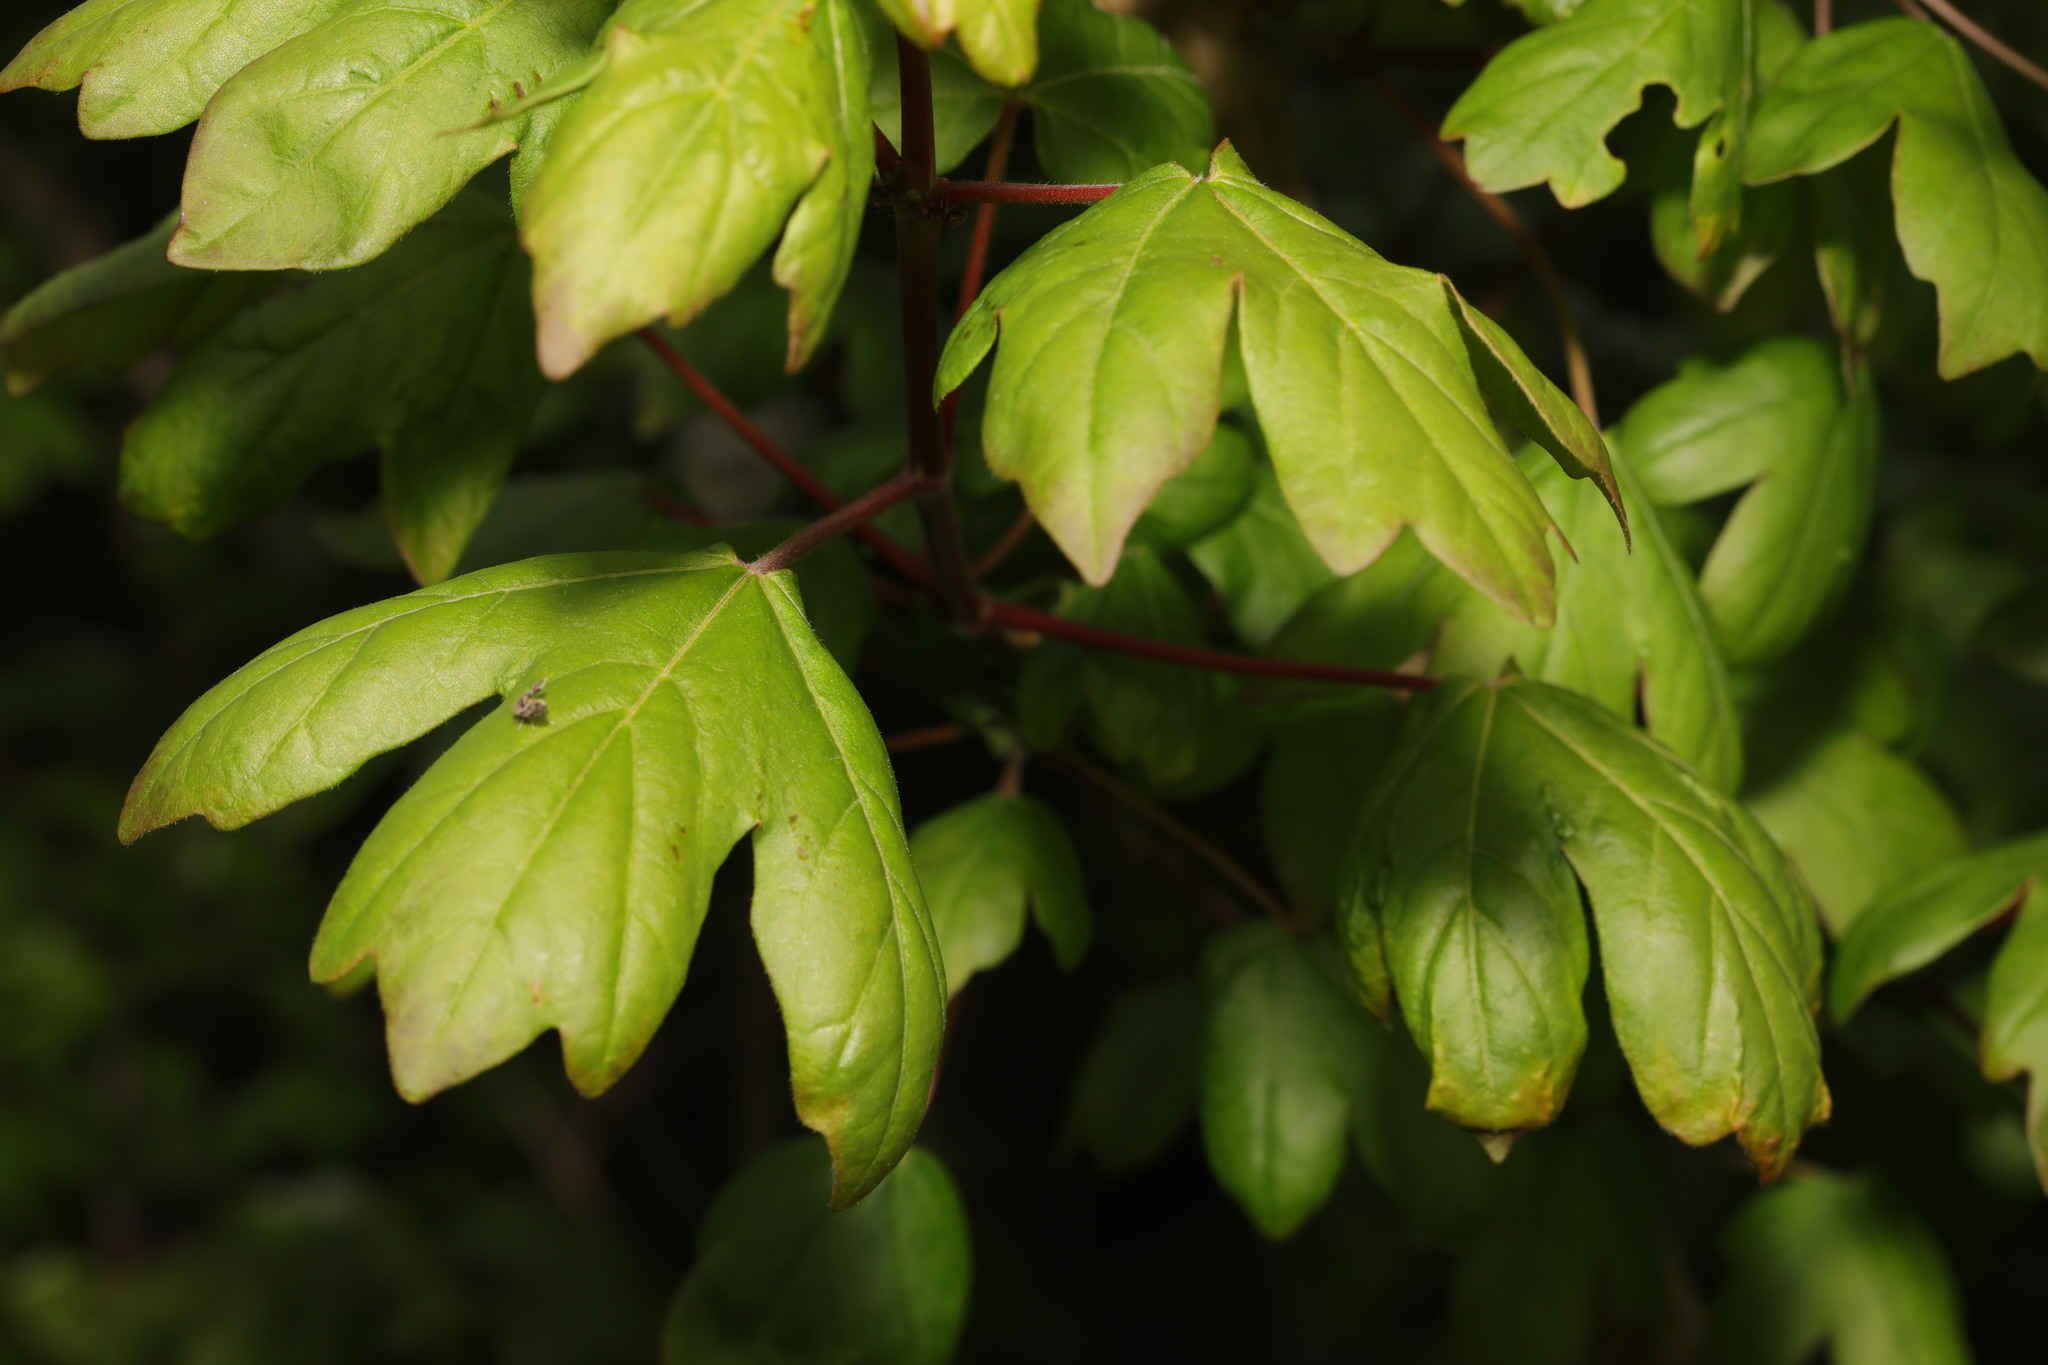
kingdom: Plantae
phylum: Tracheophyta
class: Magnoliopsida
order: Sapindales
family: Sapindaceae
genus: Acer
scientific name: Acer campestre
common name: Field maple
